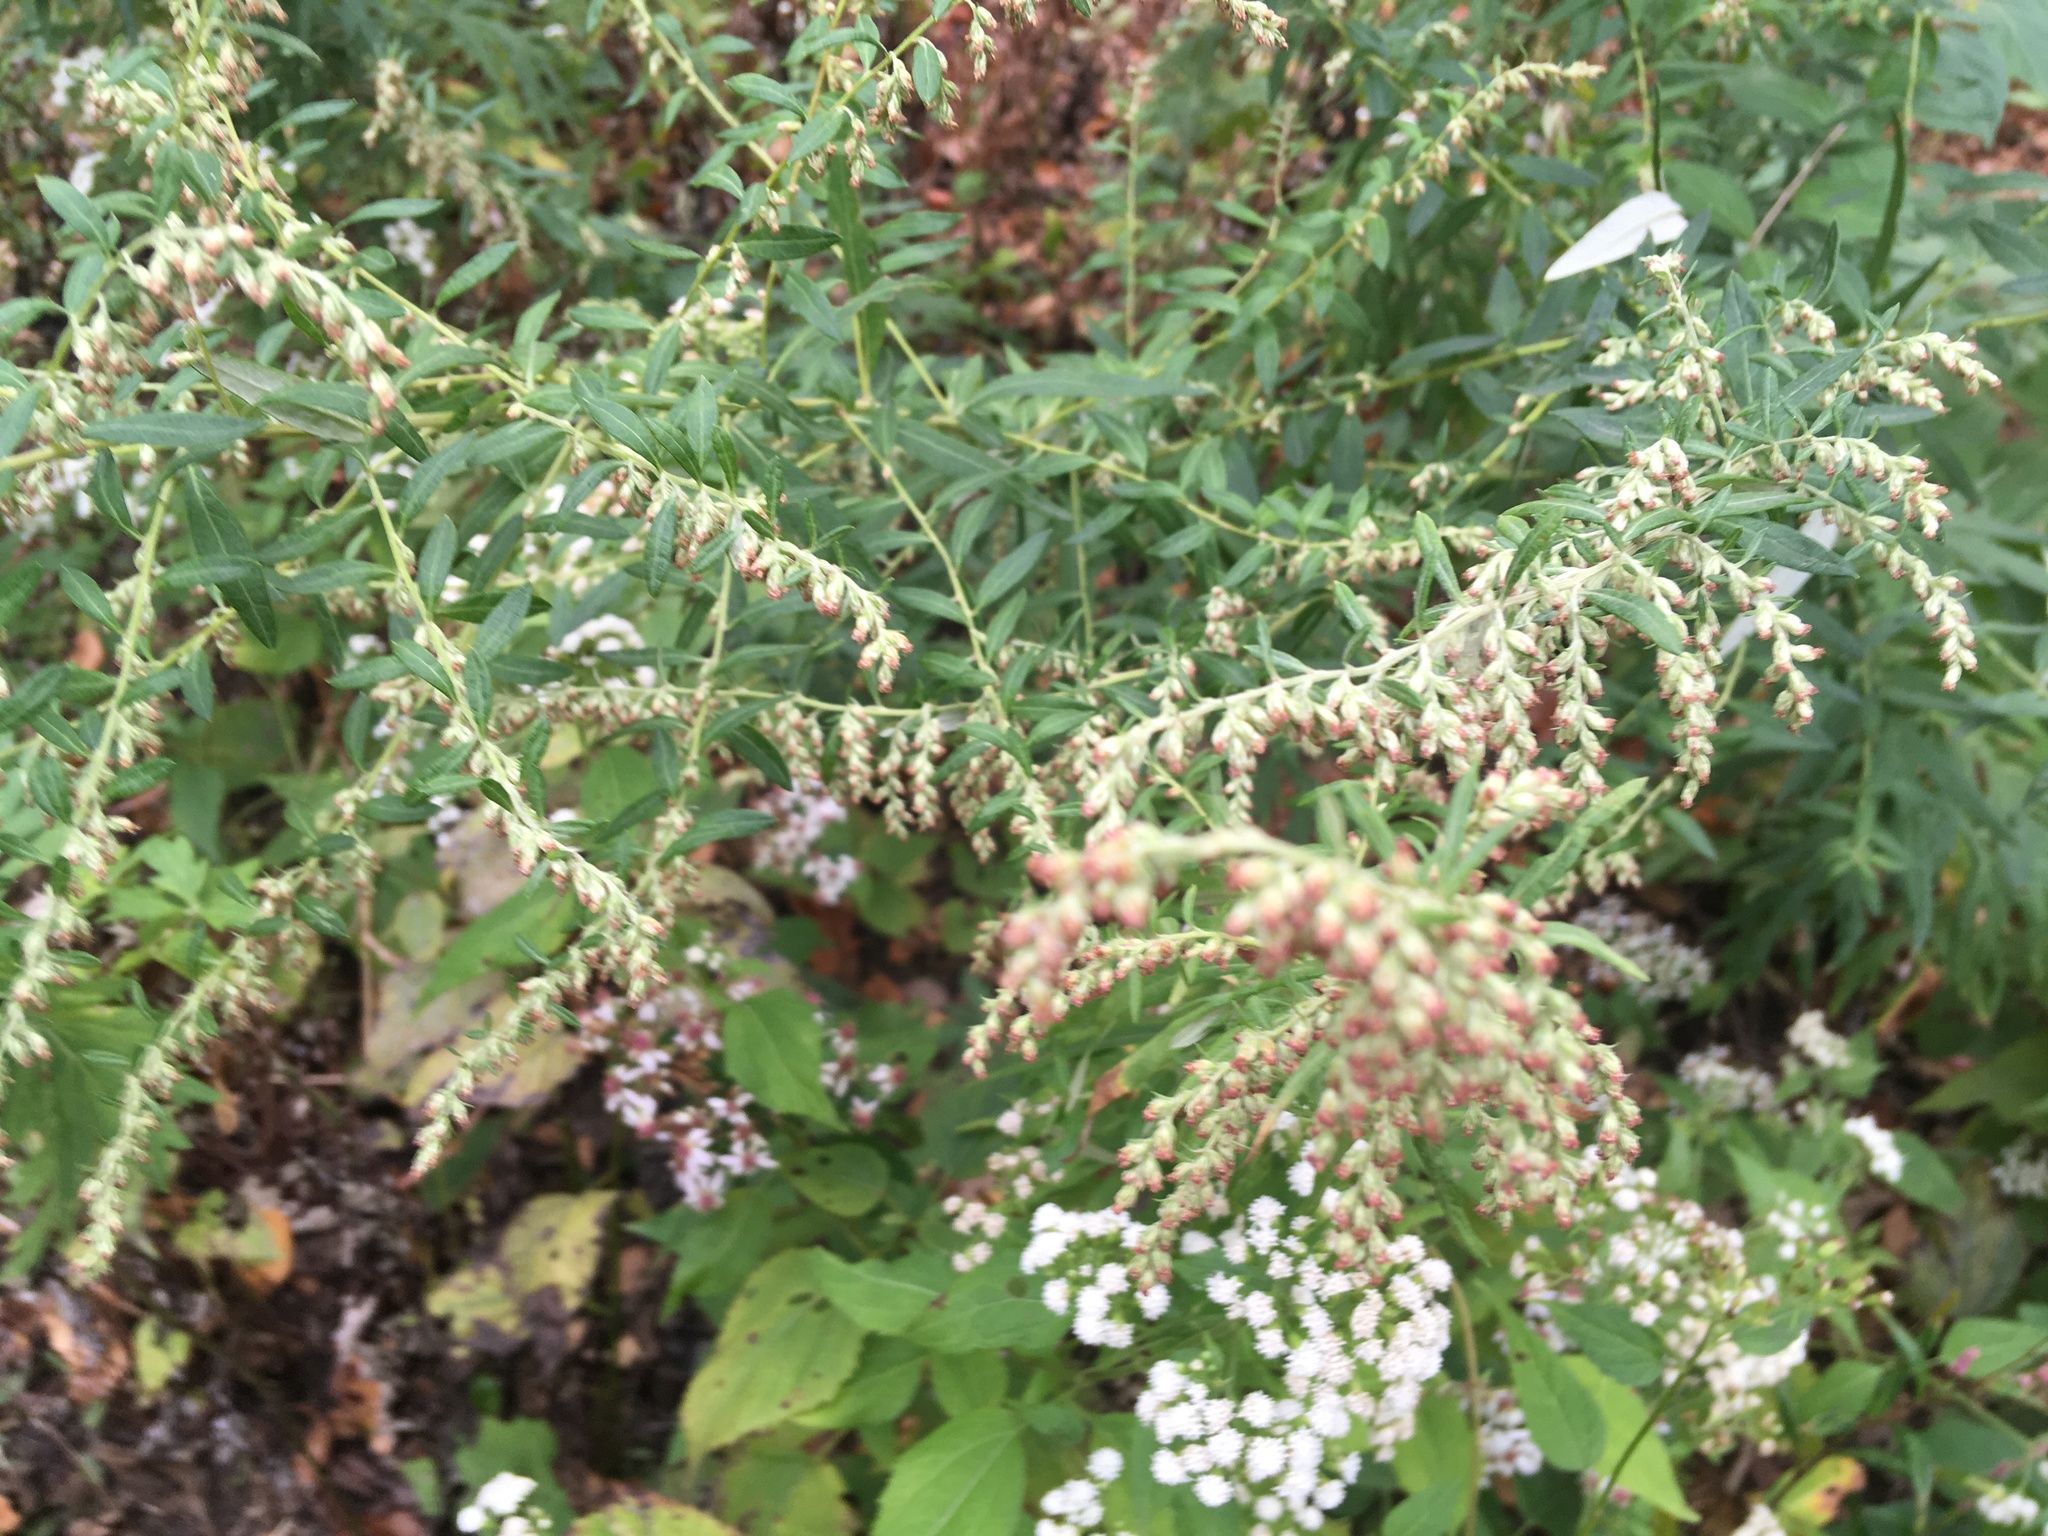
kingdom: Plantae
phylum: Tracheophyta
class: Magnoliopsida
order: Asterales
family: Asteraceae
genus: Artemisia
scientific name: Artemisia vulgaris
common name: Mugwort
